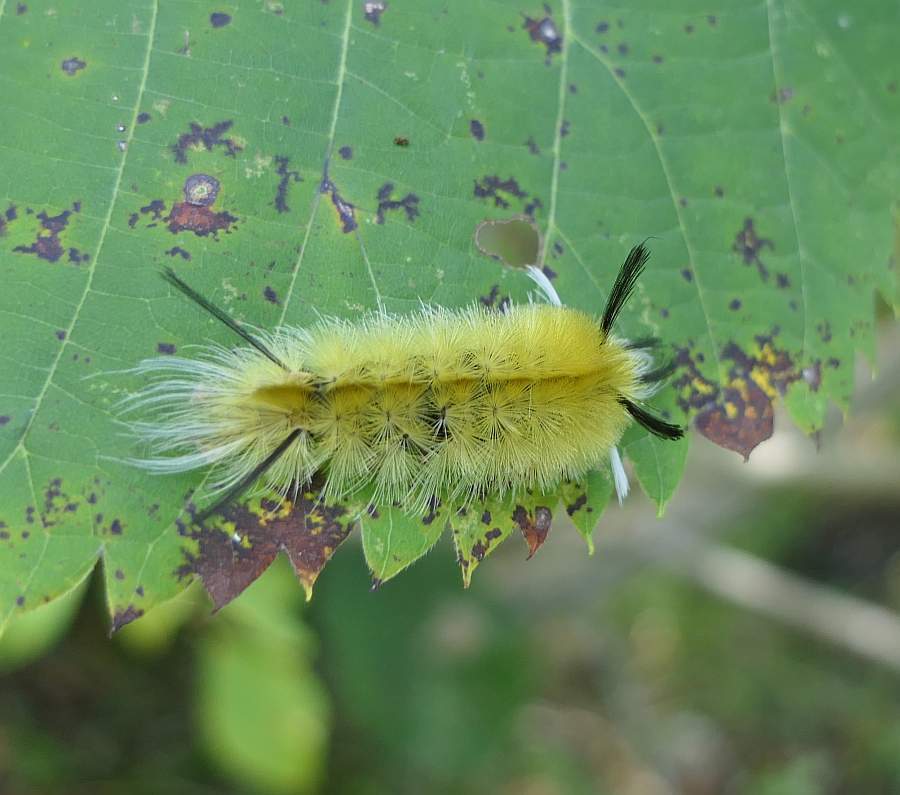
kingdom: Animalia
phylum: Arthropoda
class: Insecta
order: Lepidoptera
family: Erebidae
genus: Halysidota
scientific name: Halysidota tessellaris
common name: Banded tussock moth
